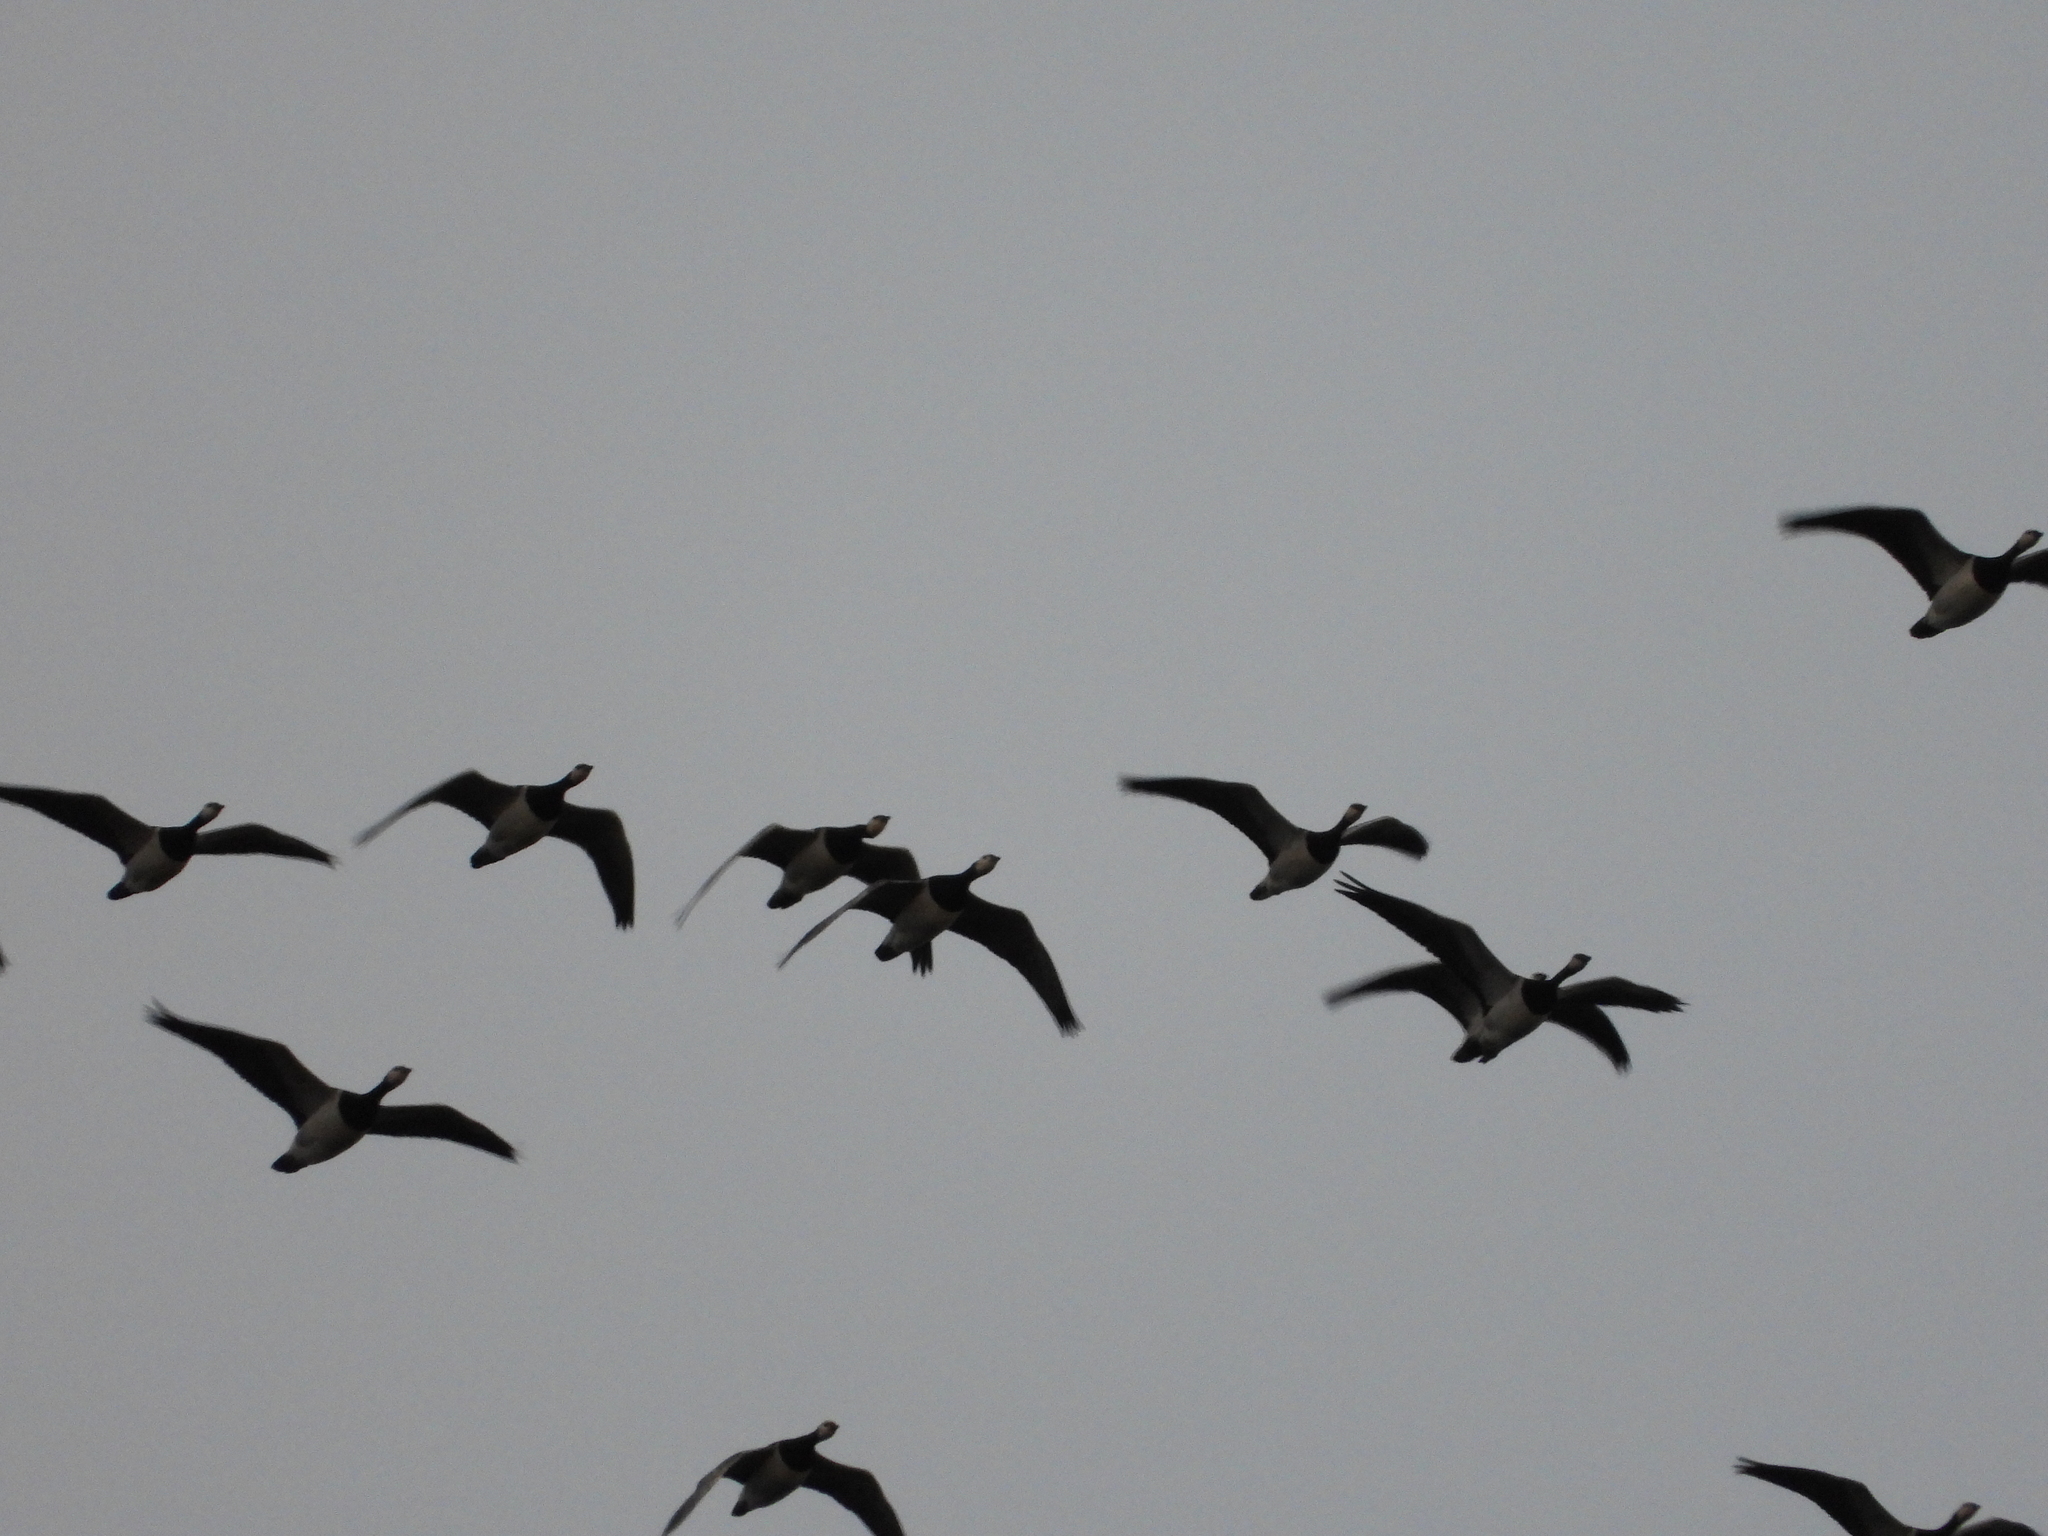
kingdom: Animalia
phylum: Chordata
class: Aves
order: Anseriformes
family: Anatidae
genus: Branta
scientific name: Branta leucopsis
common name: Barnacle goose
